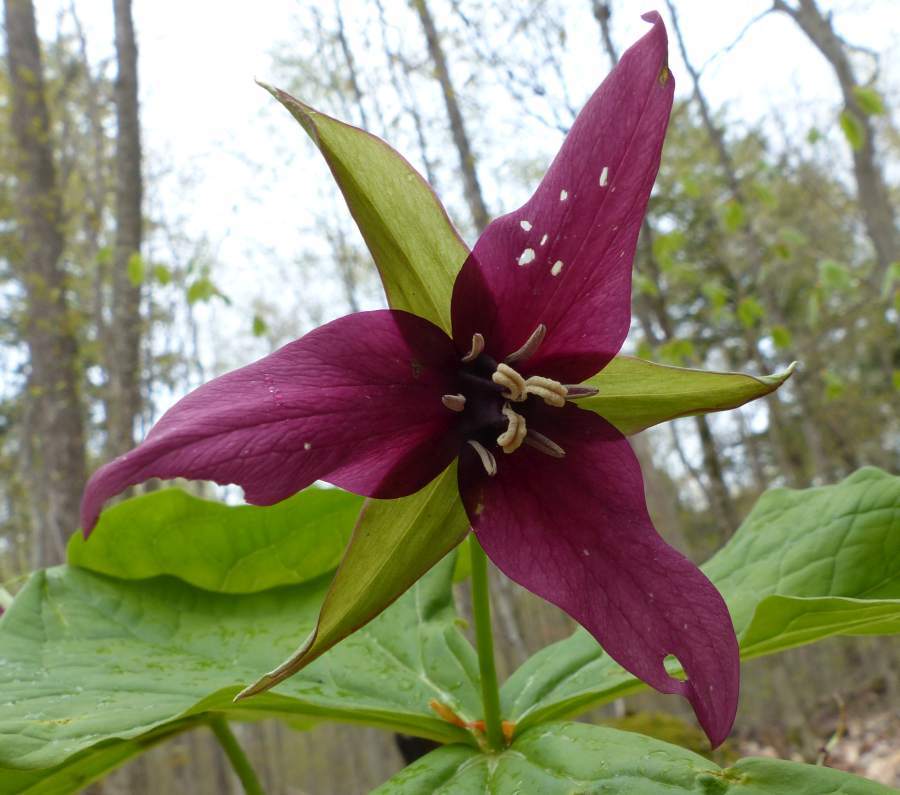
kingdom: Plantae
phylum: Tracheophyta
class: Liliopsida
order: Liliales
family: Melanthiaceae
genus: Trillium
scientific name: Trillium erectum
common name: Purple trillium
